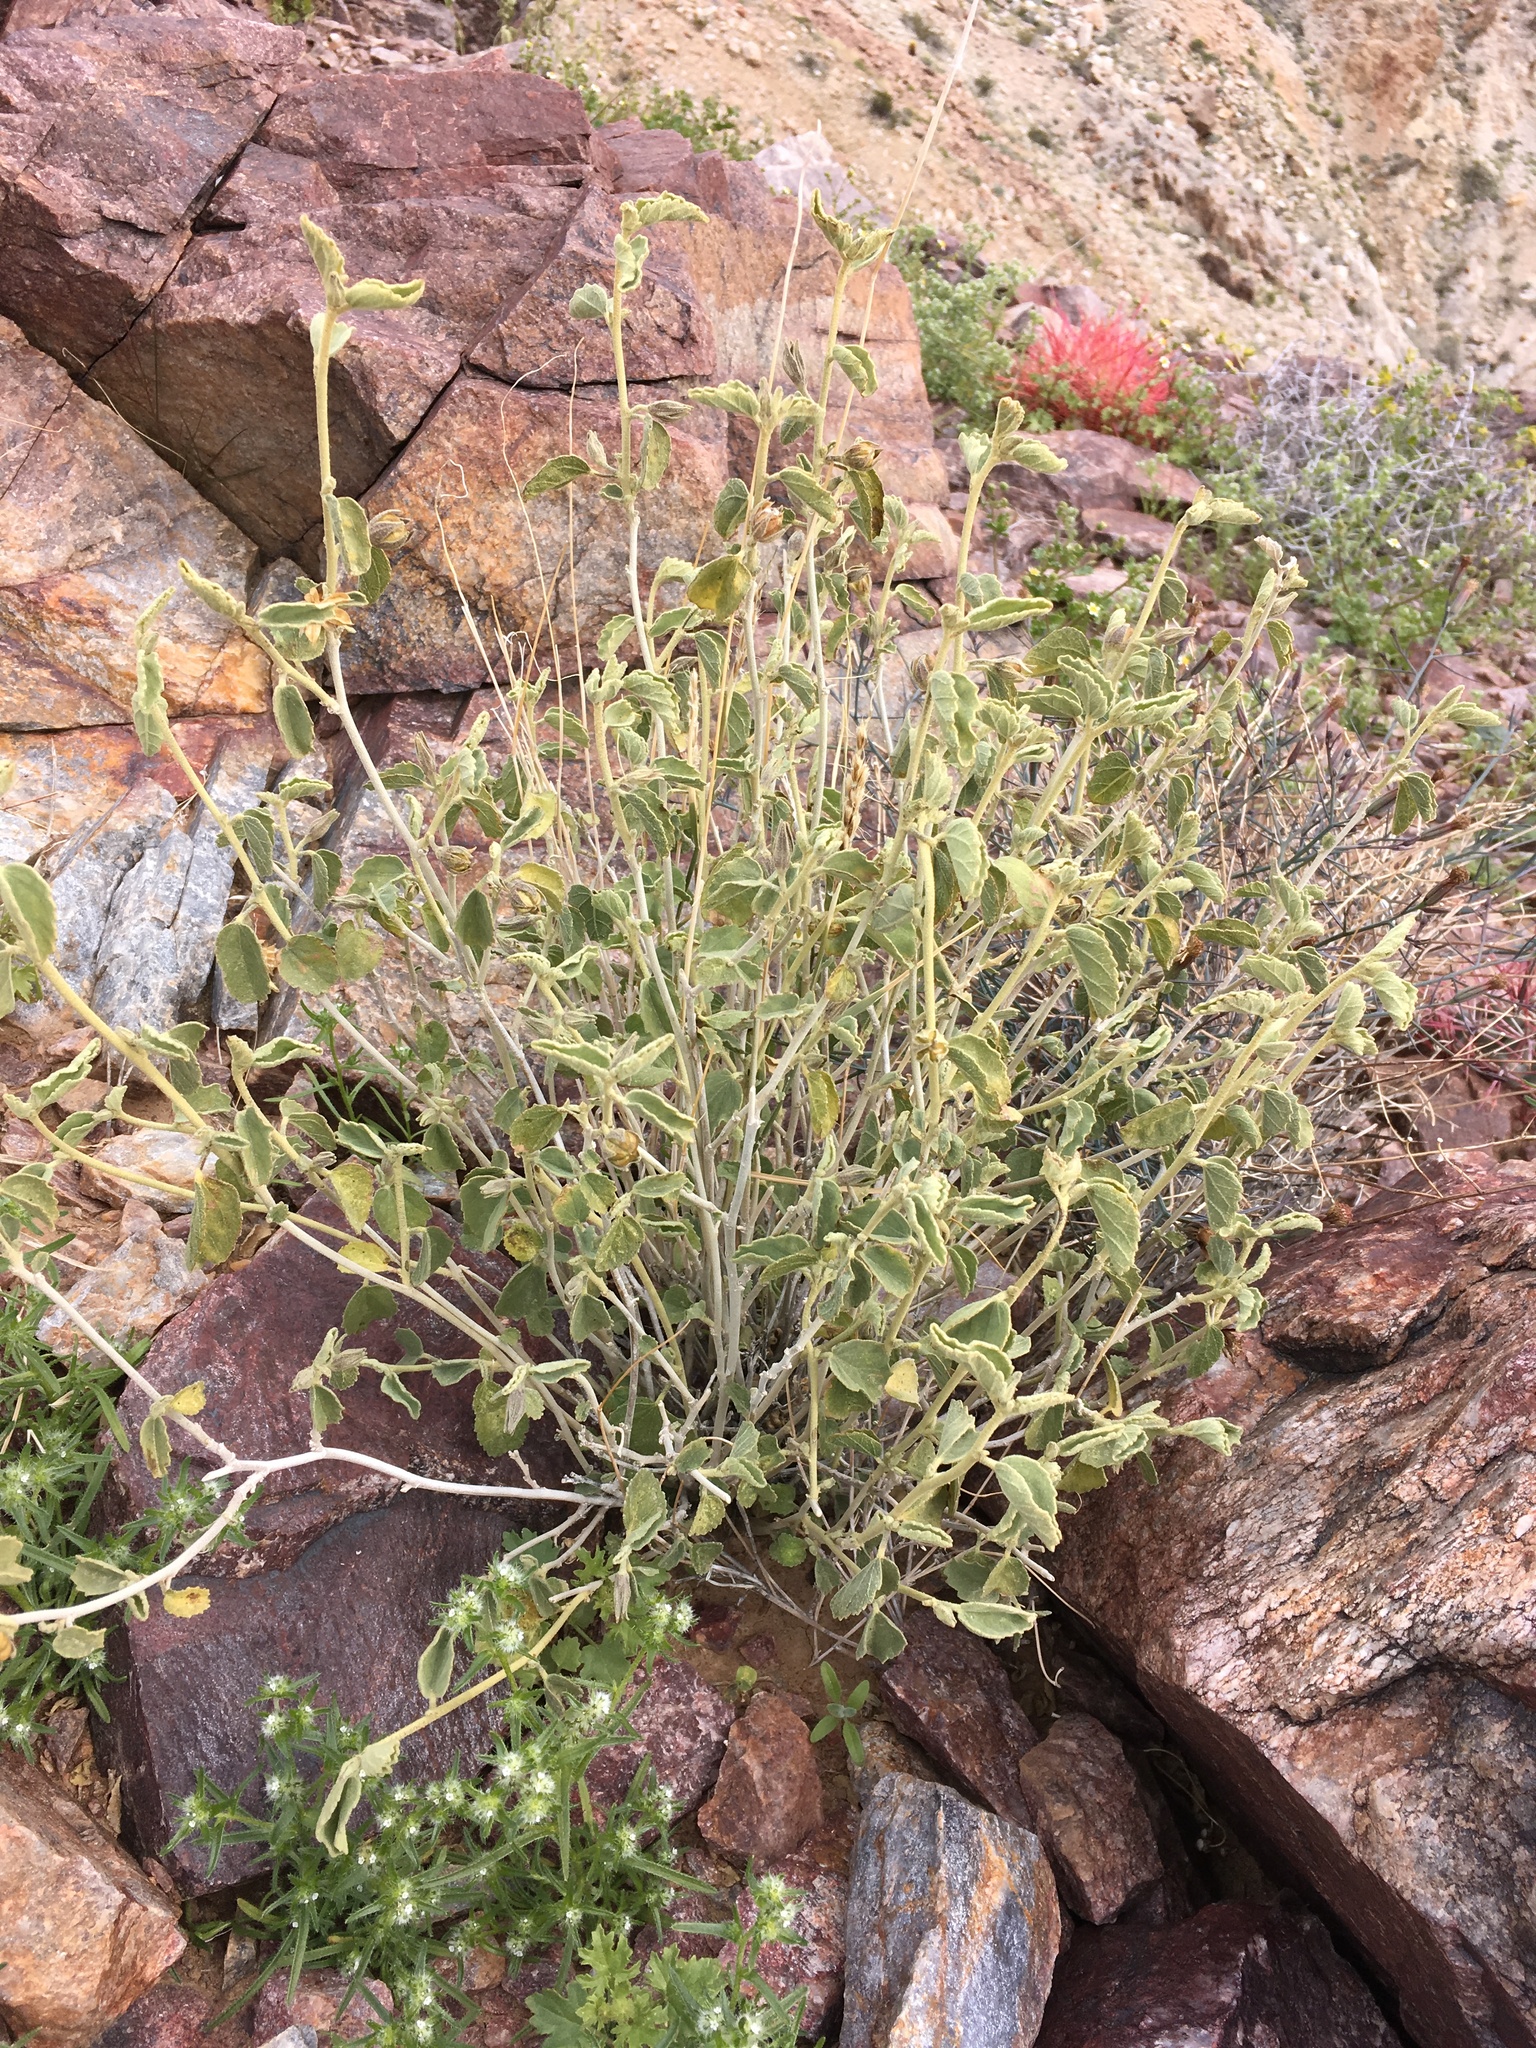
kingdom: Plantae
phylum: Tracheophyta
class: Magnoliopsida
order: Malvales
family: Malvaceae
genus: Hibiscus
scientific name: Hibiscus denudatus
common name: Paleface
